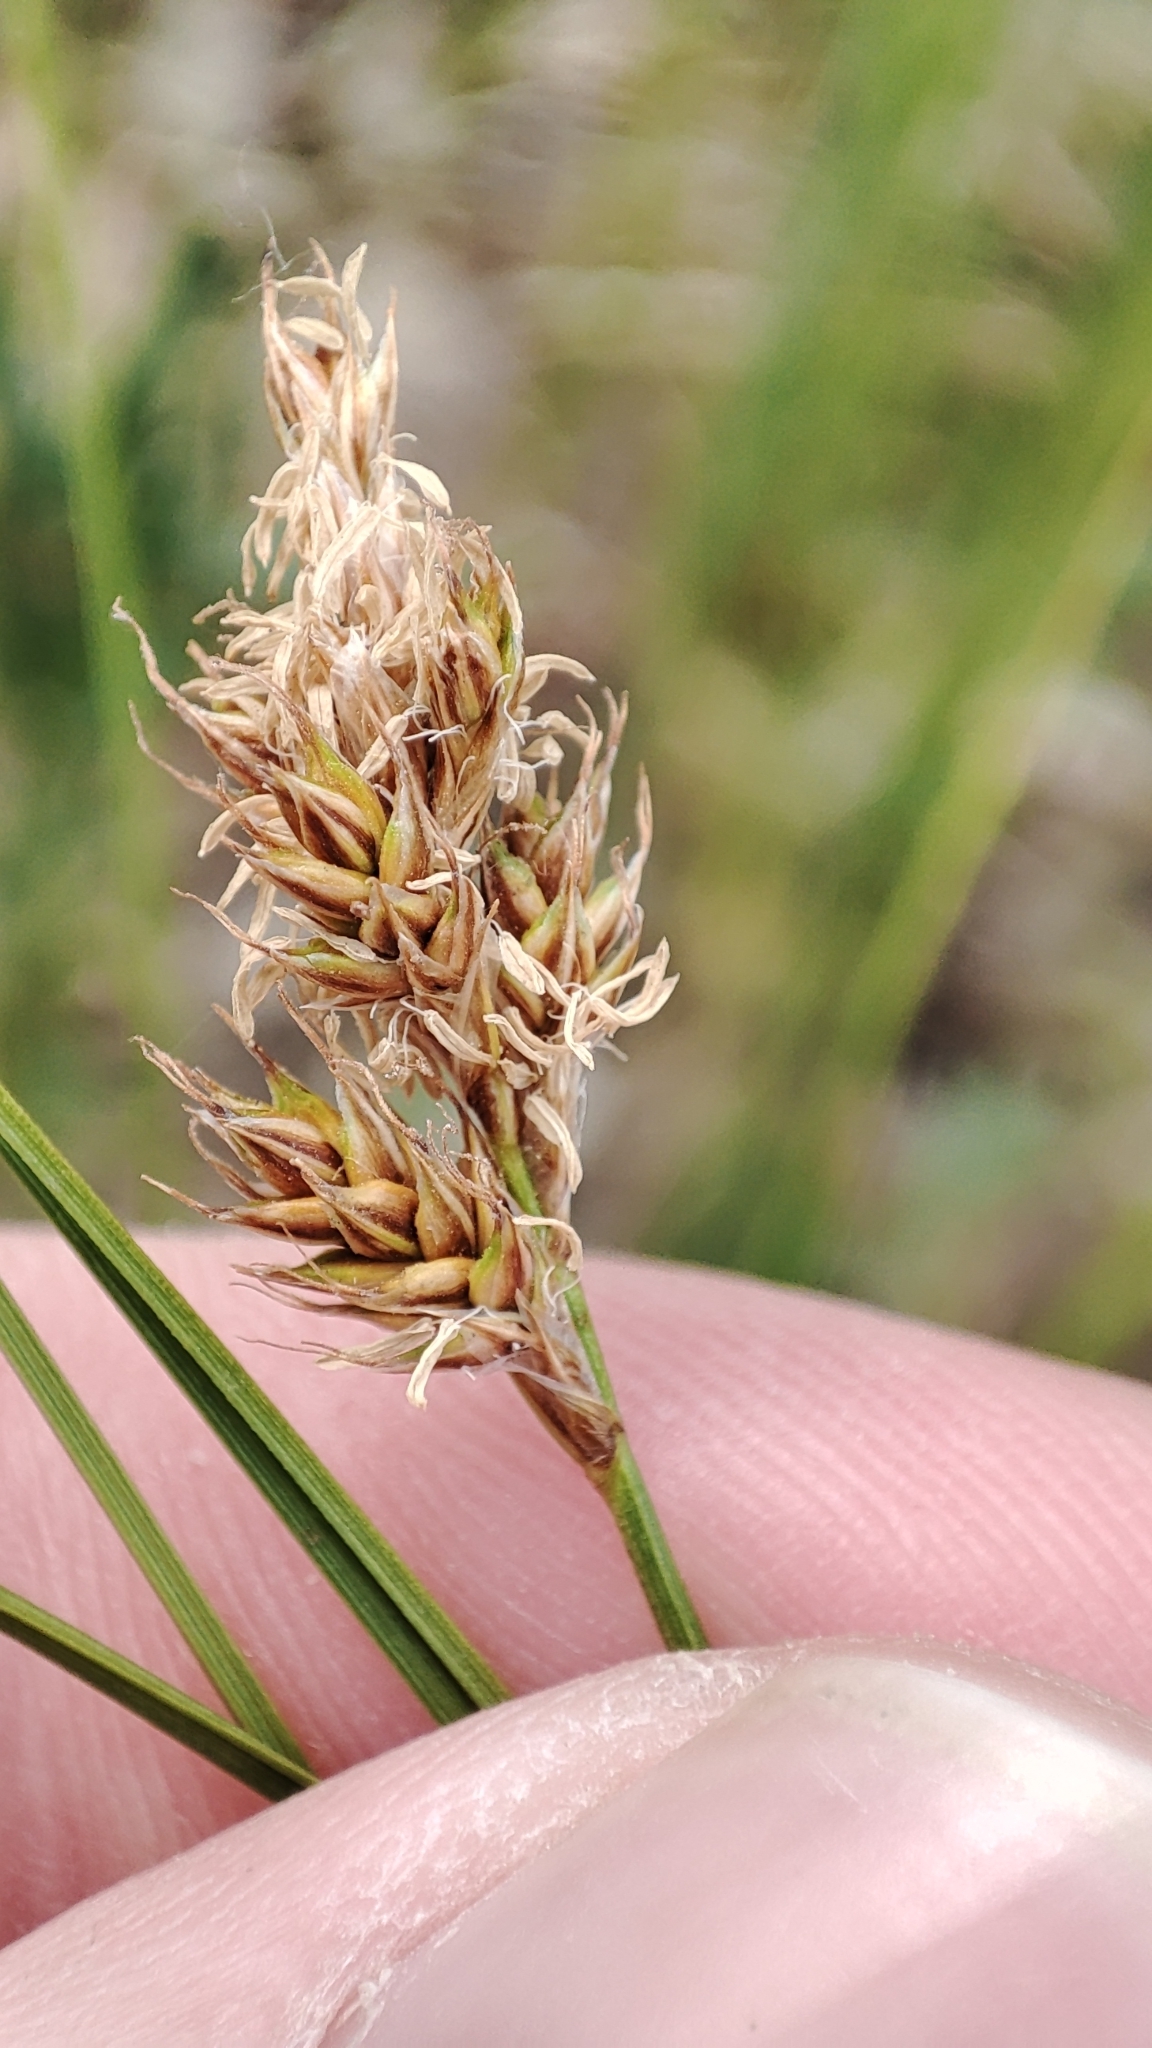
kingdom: Plantae
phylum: Tracheophyta
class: Liliopsida
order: Poales
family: Cyperaceae
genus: Carex
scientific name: Carex praecox
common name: Early sedge
